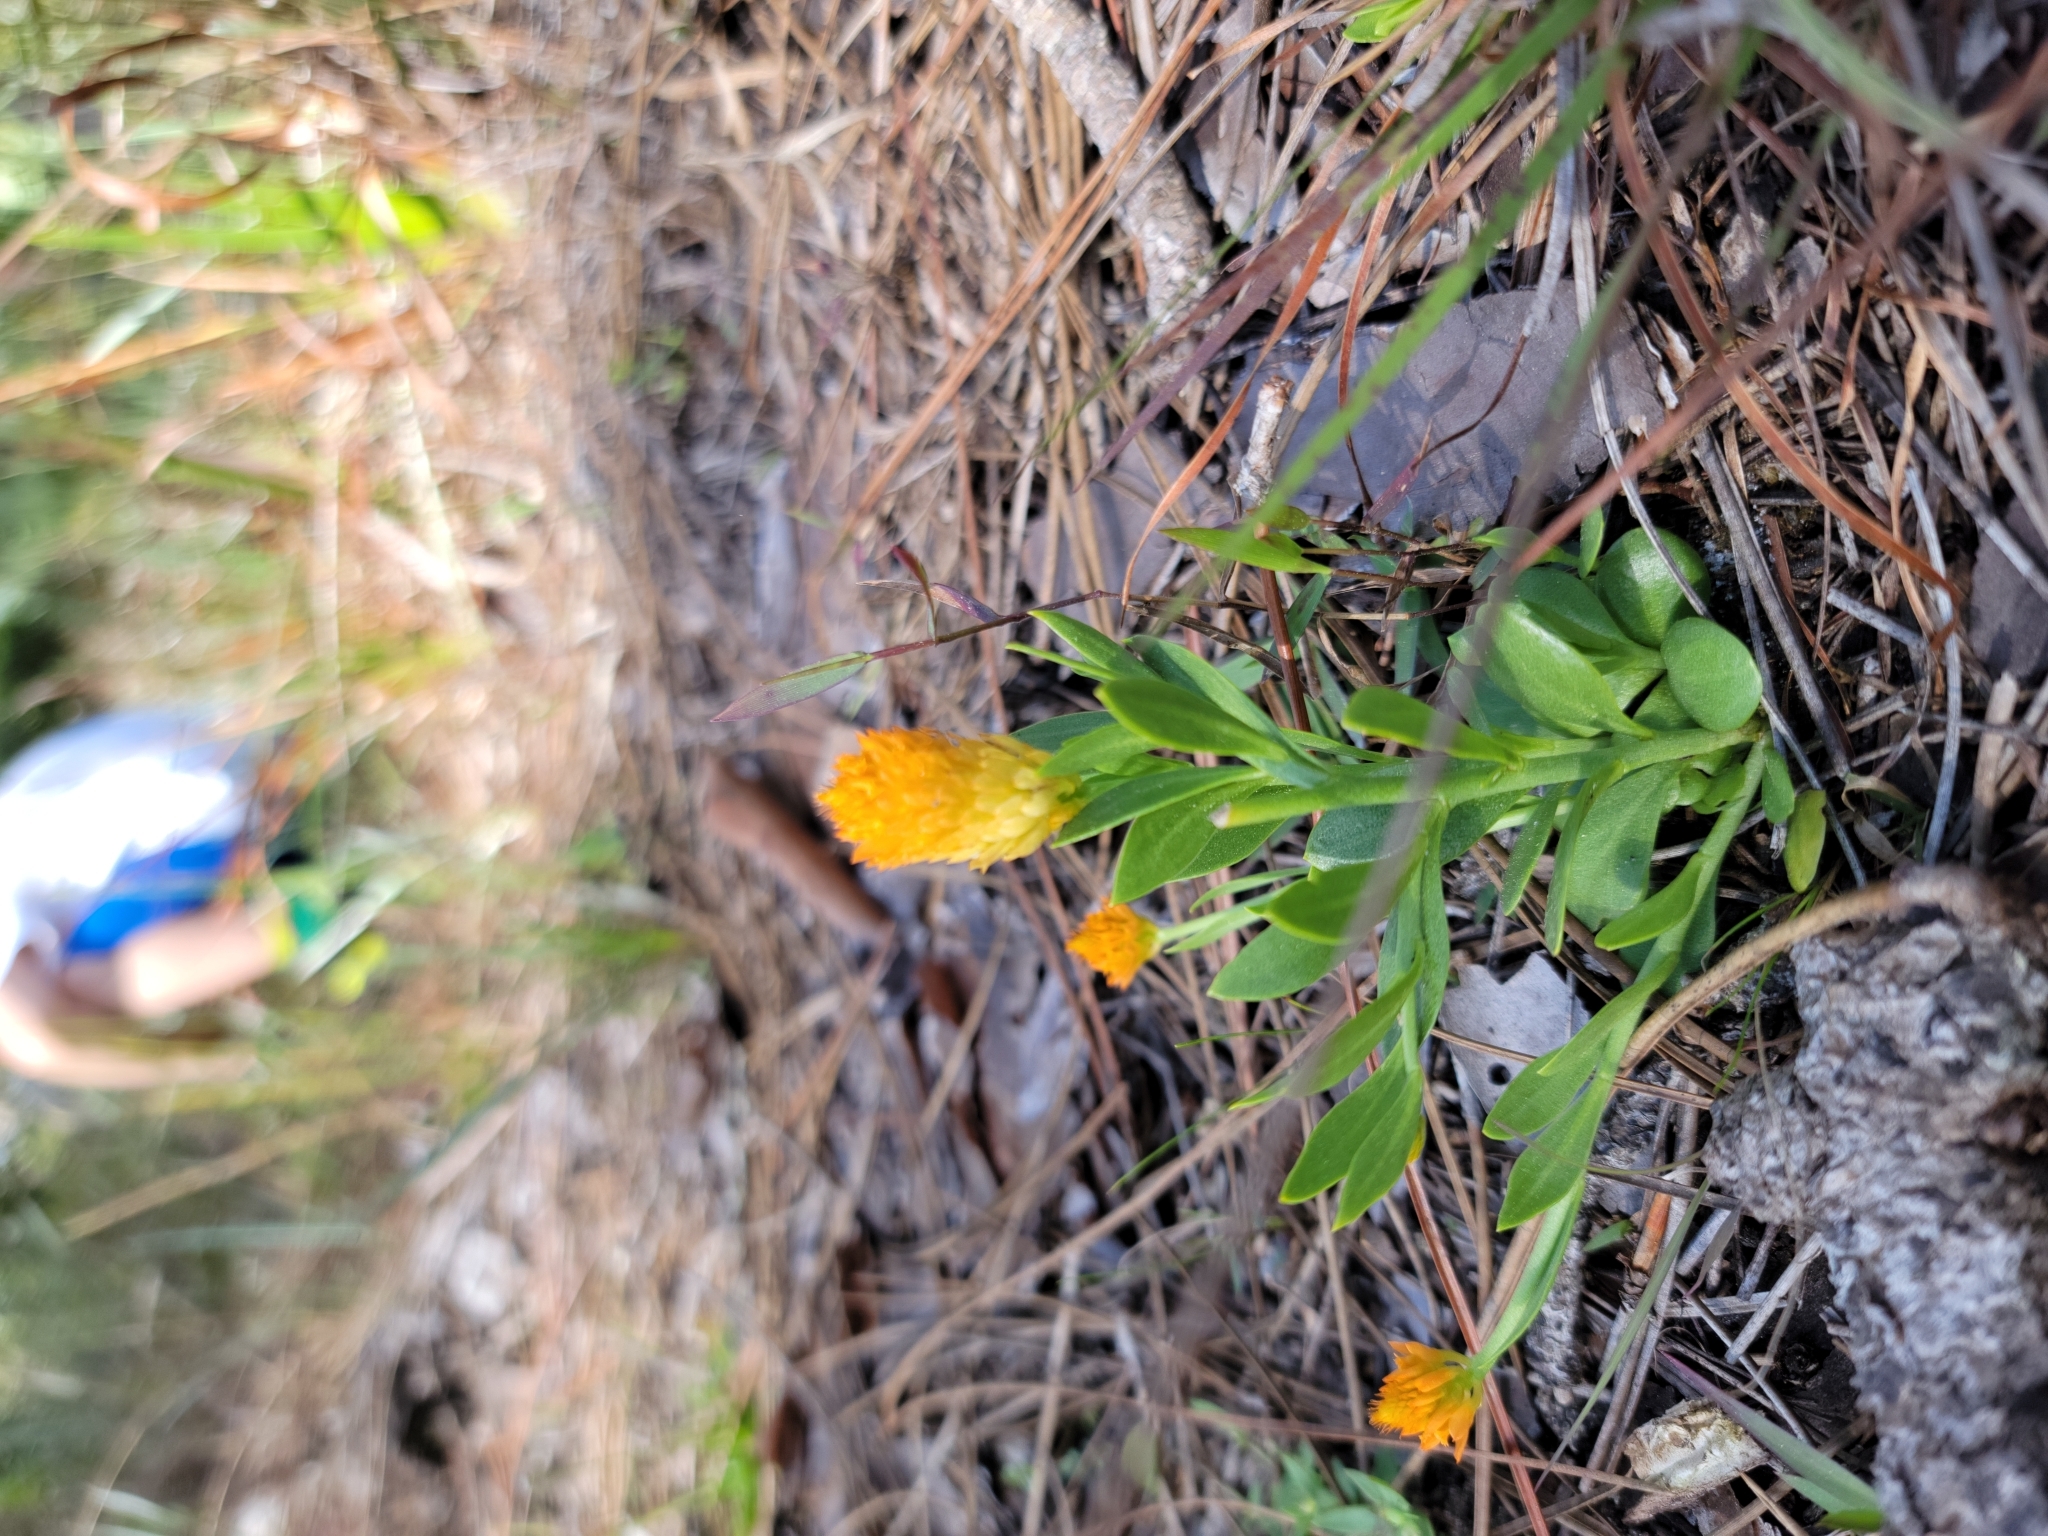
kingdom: Plantae
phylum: Tracheophyta
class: Magnoliopsida
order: Fabales
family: Polygalaceae
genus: Polygala
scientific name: Polygala lutea
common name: Orange milkwort
